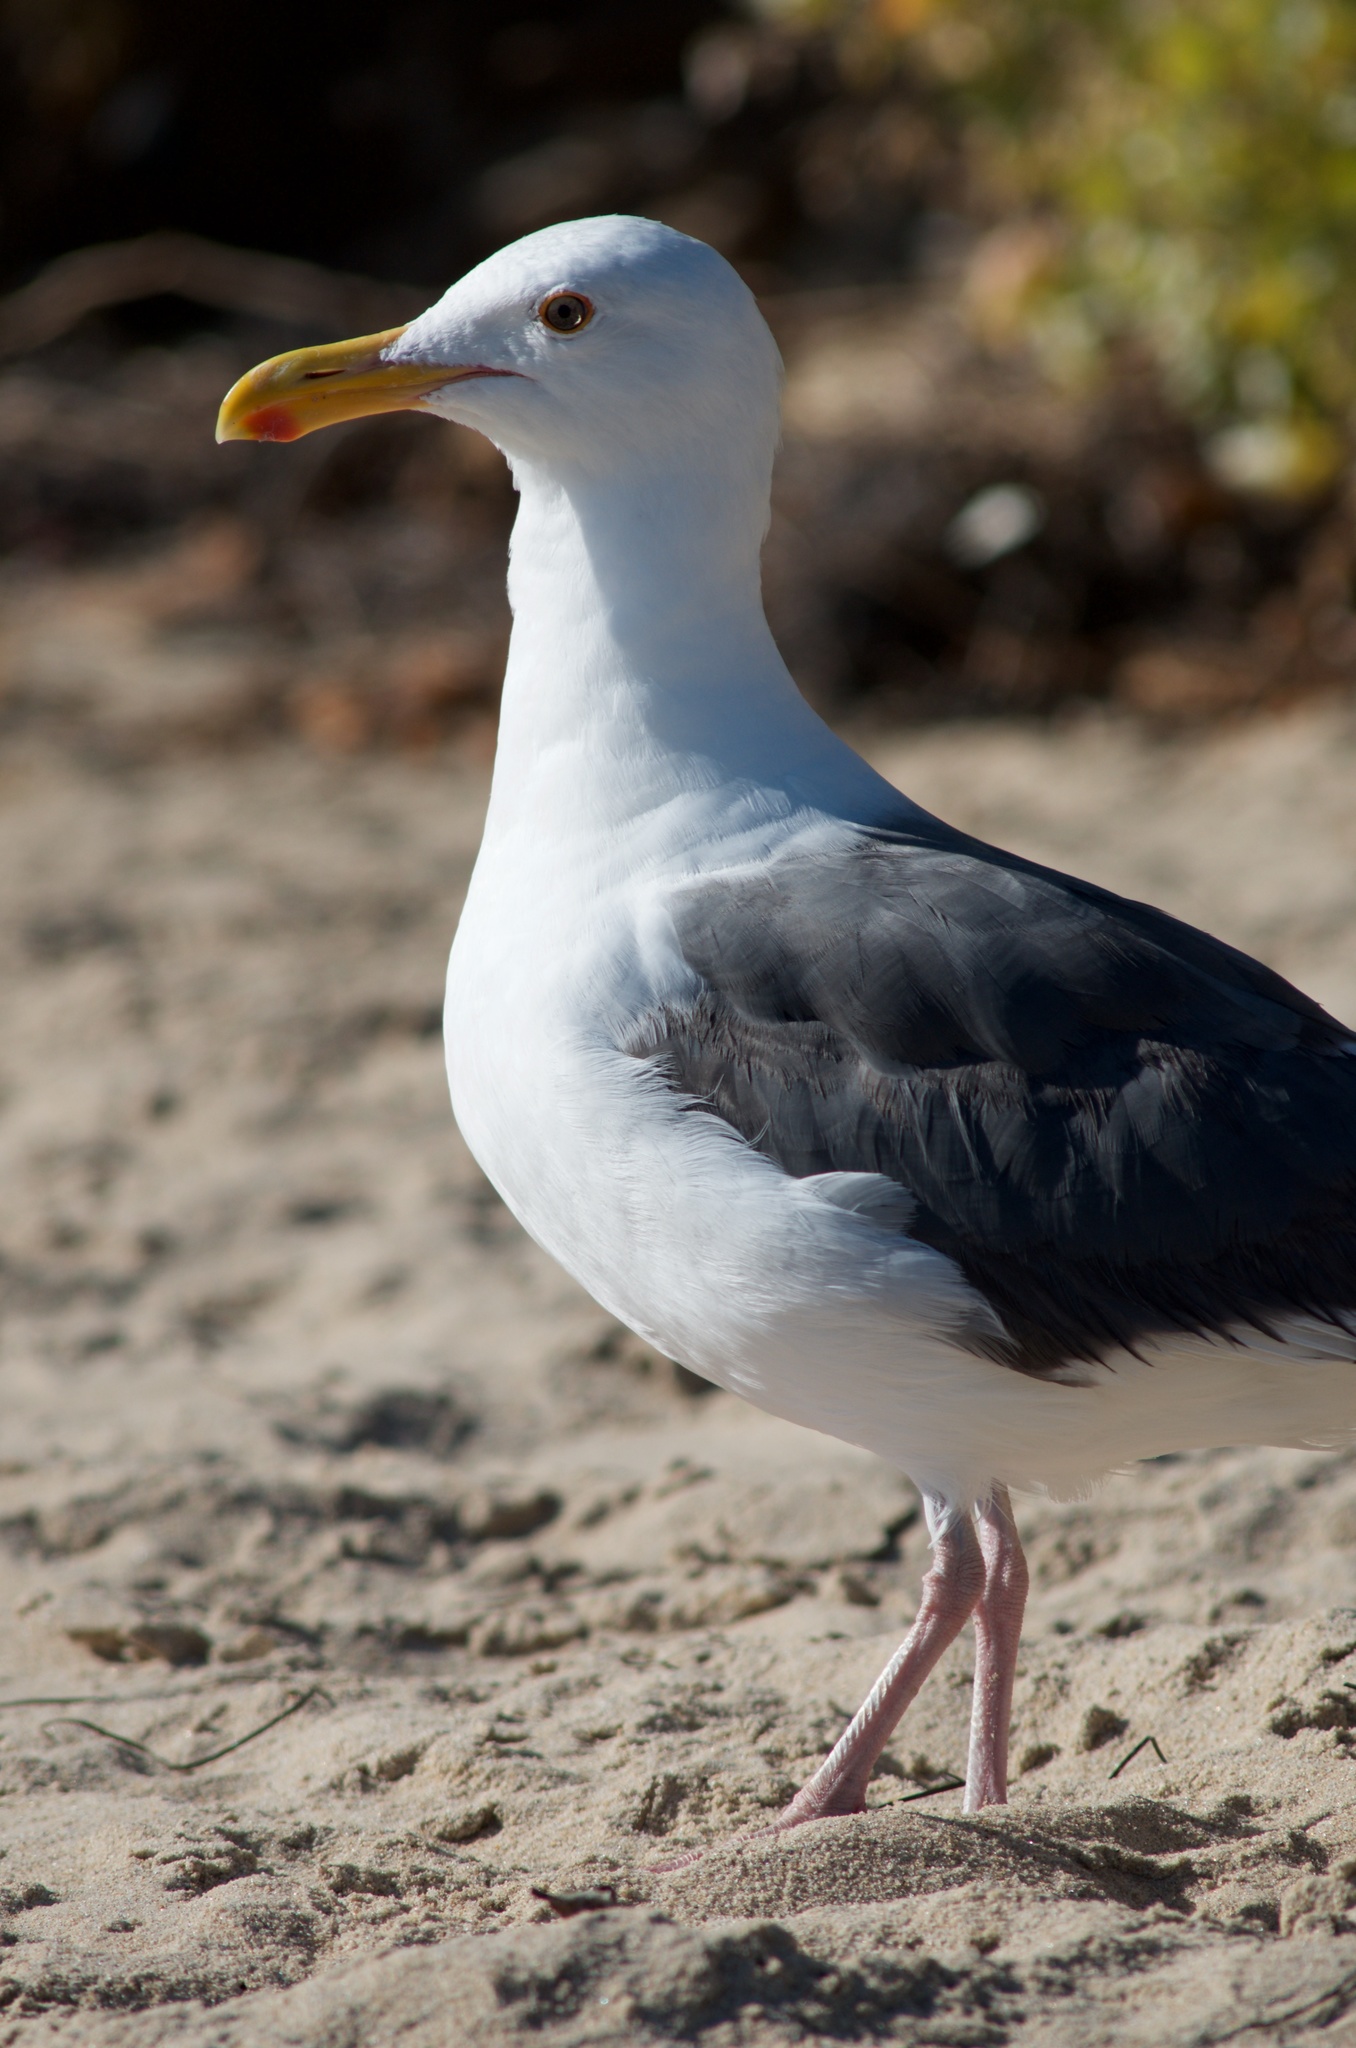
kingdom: Animalia
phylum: Chordata
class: Aves
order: Charadriiformes
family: Laridae
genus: Larus
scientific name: Larus occidentalis
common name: Western gull
